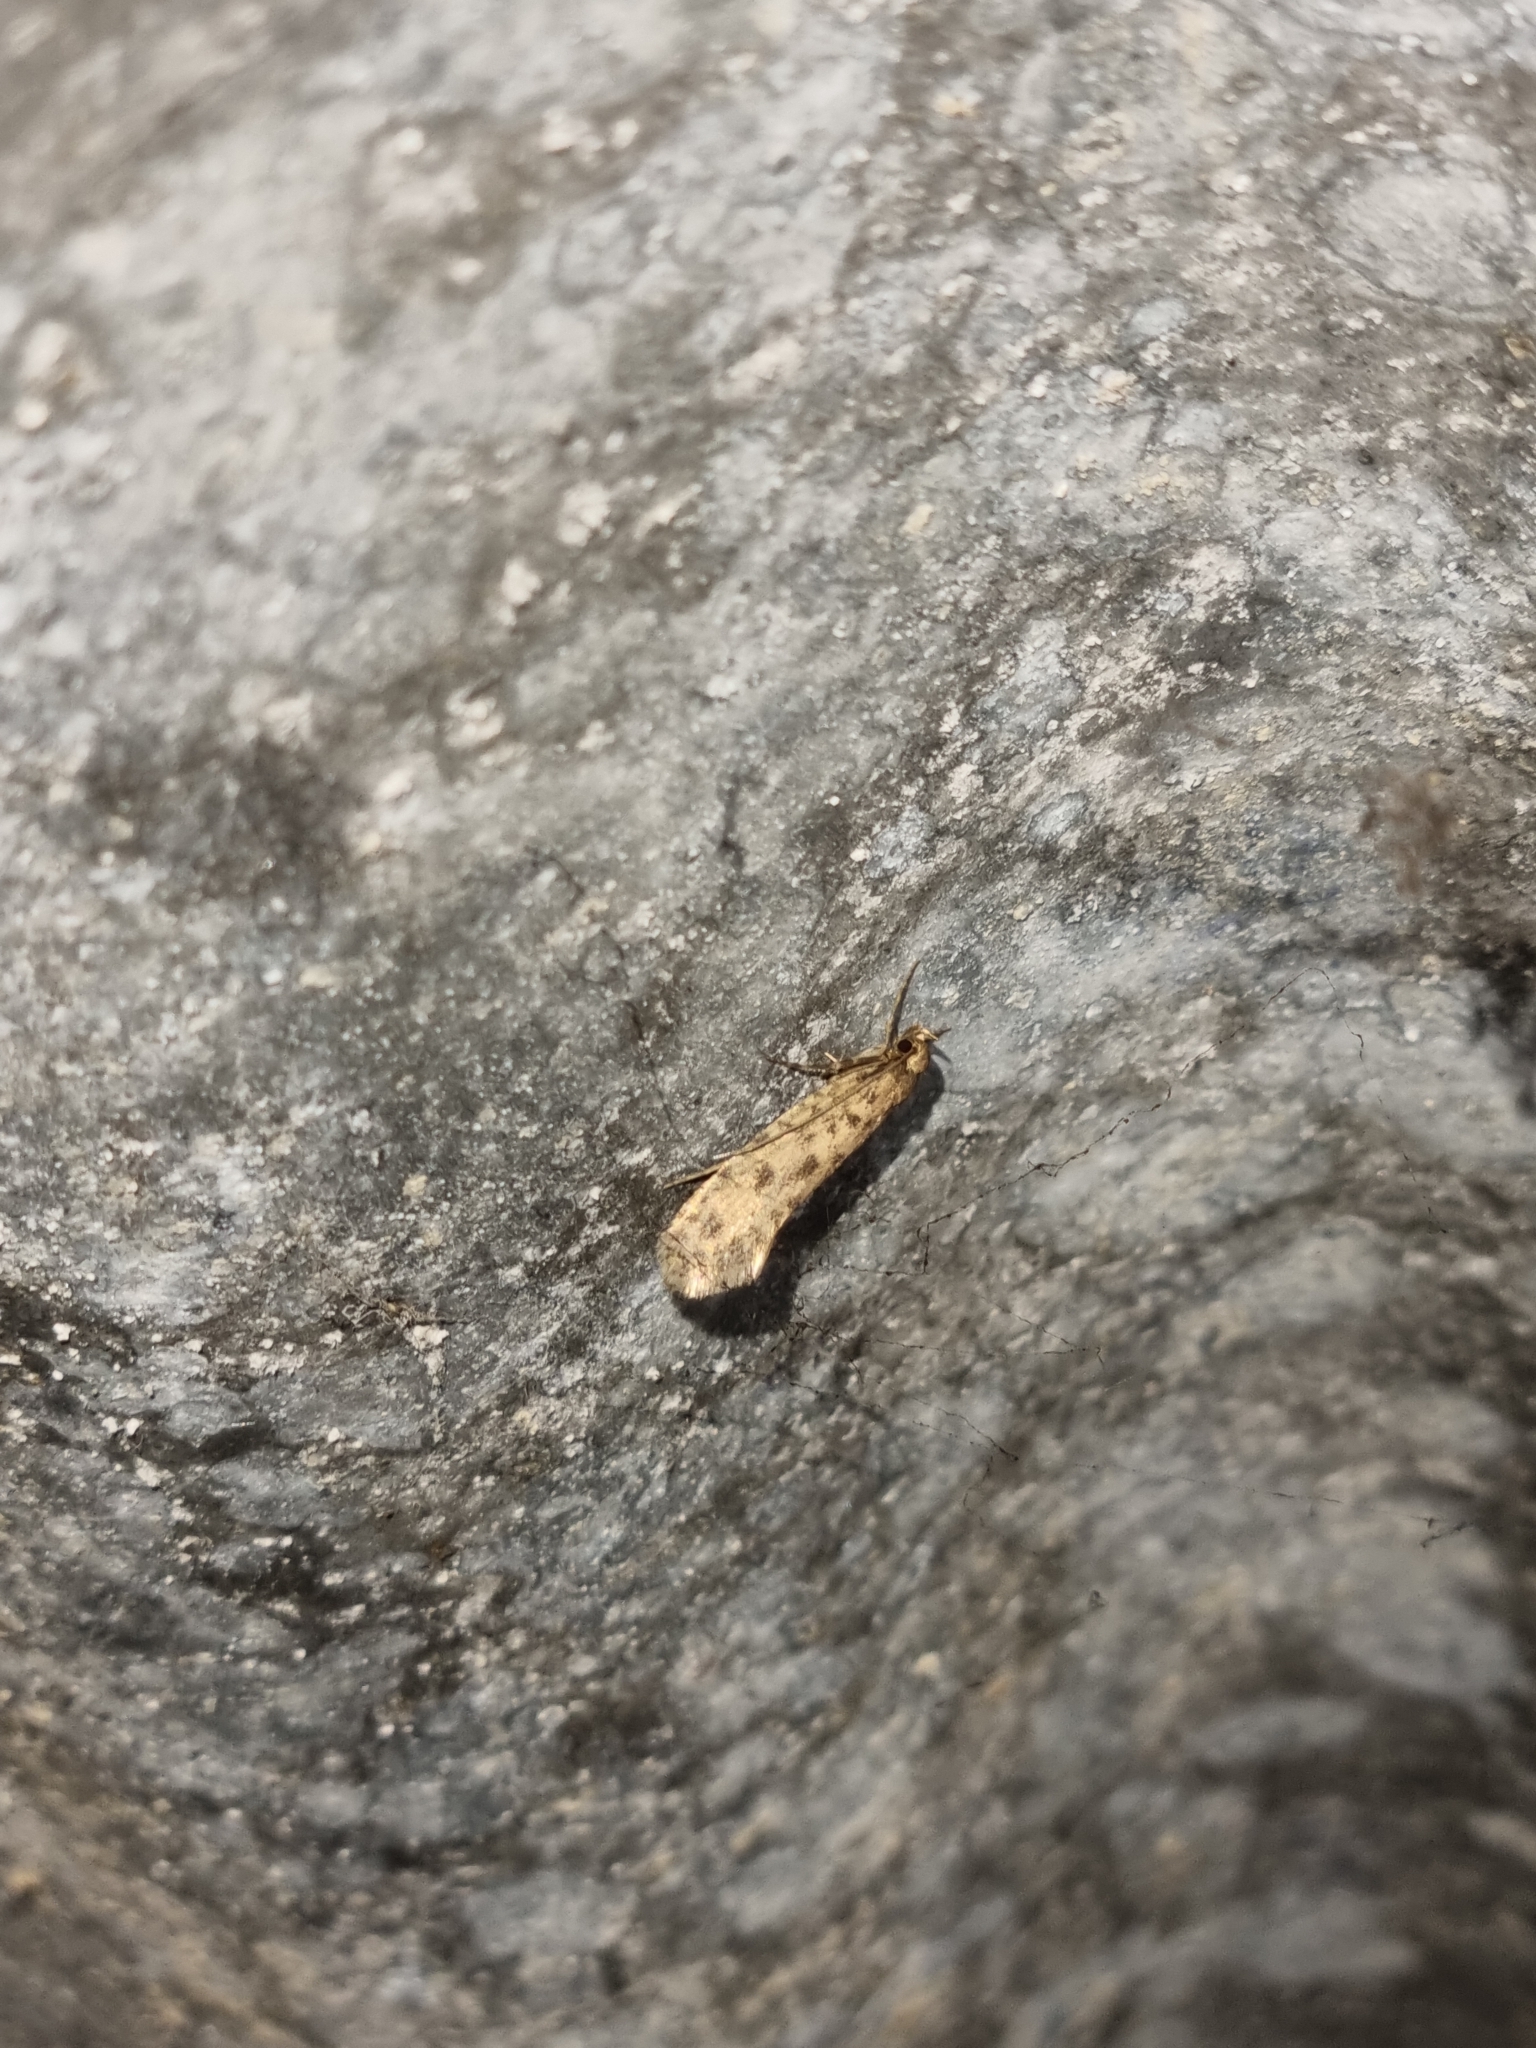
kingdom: Animalia
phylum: Arthropoda
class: Insecta
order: Lepidoptera
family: Tineidae
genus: Lindera
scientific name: Lindera tessellatella
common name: Moth
